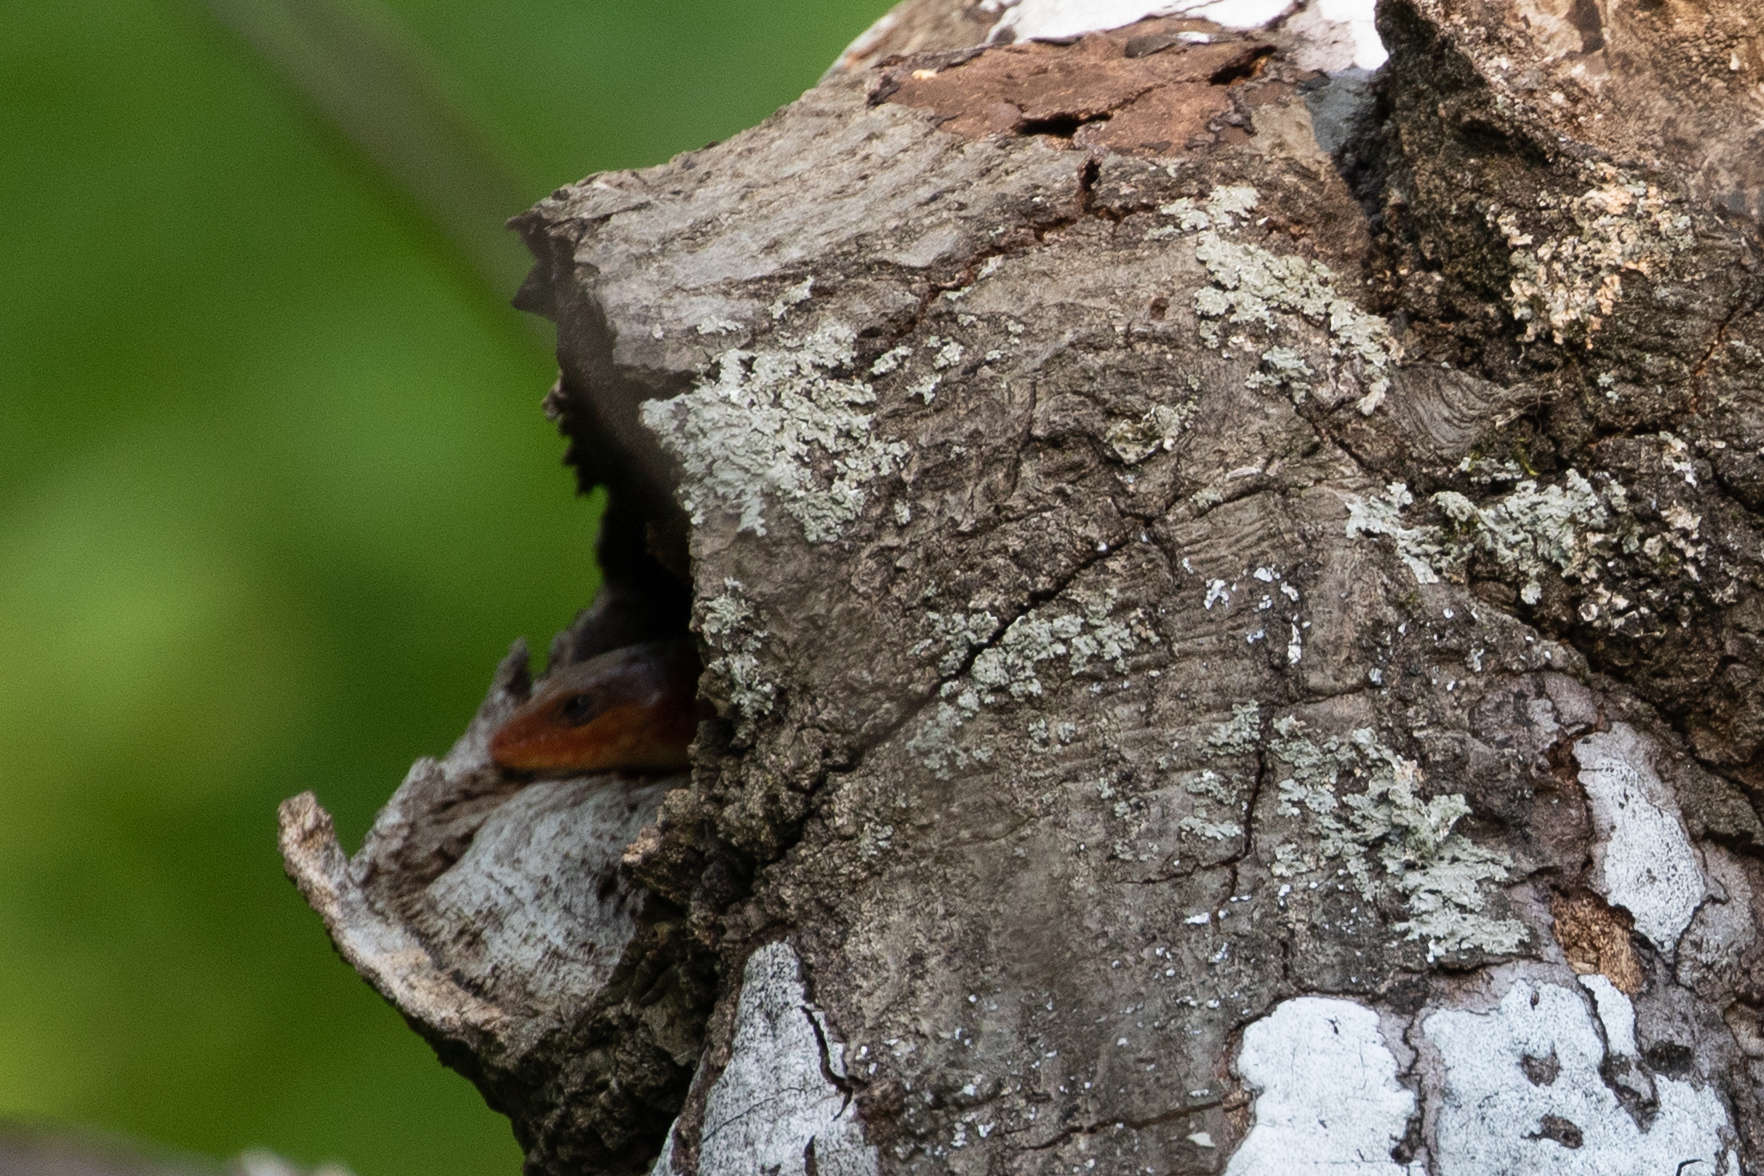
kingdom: Animalia
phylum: Chordata
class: Squamata
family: Scincidae
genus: Plestiodon
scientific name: Plestiodon laticeps
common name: Broadhead skink
